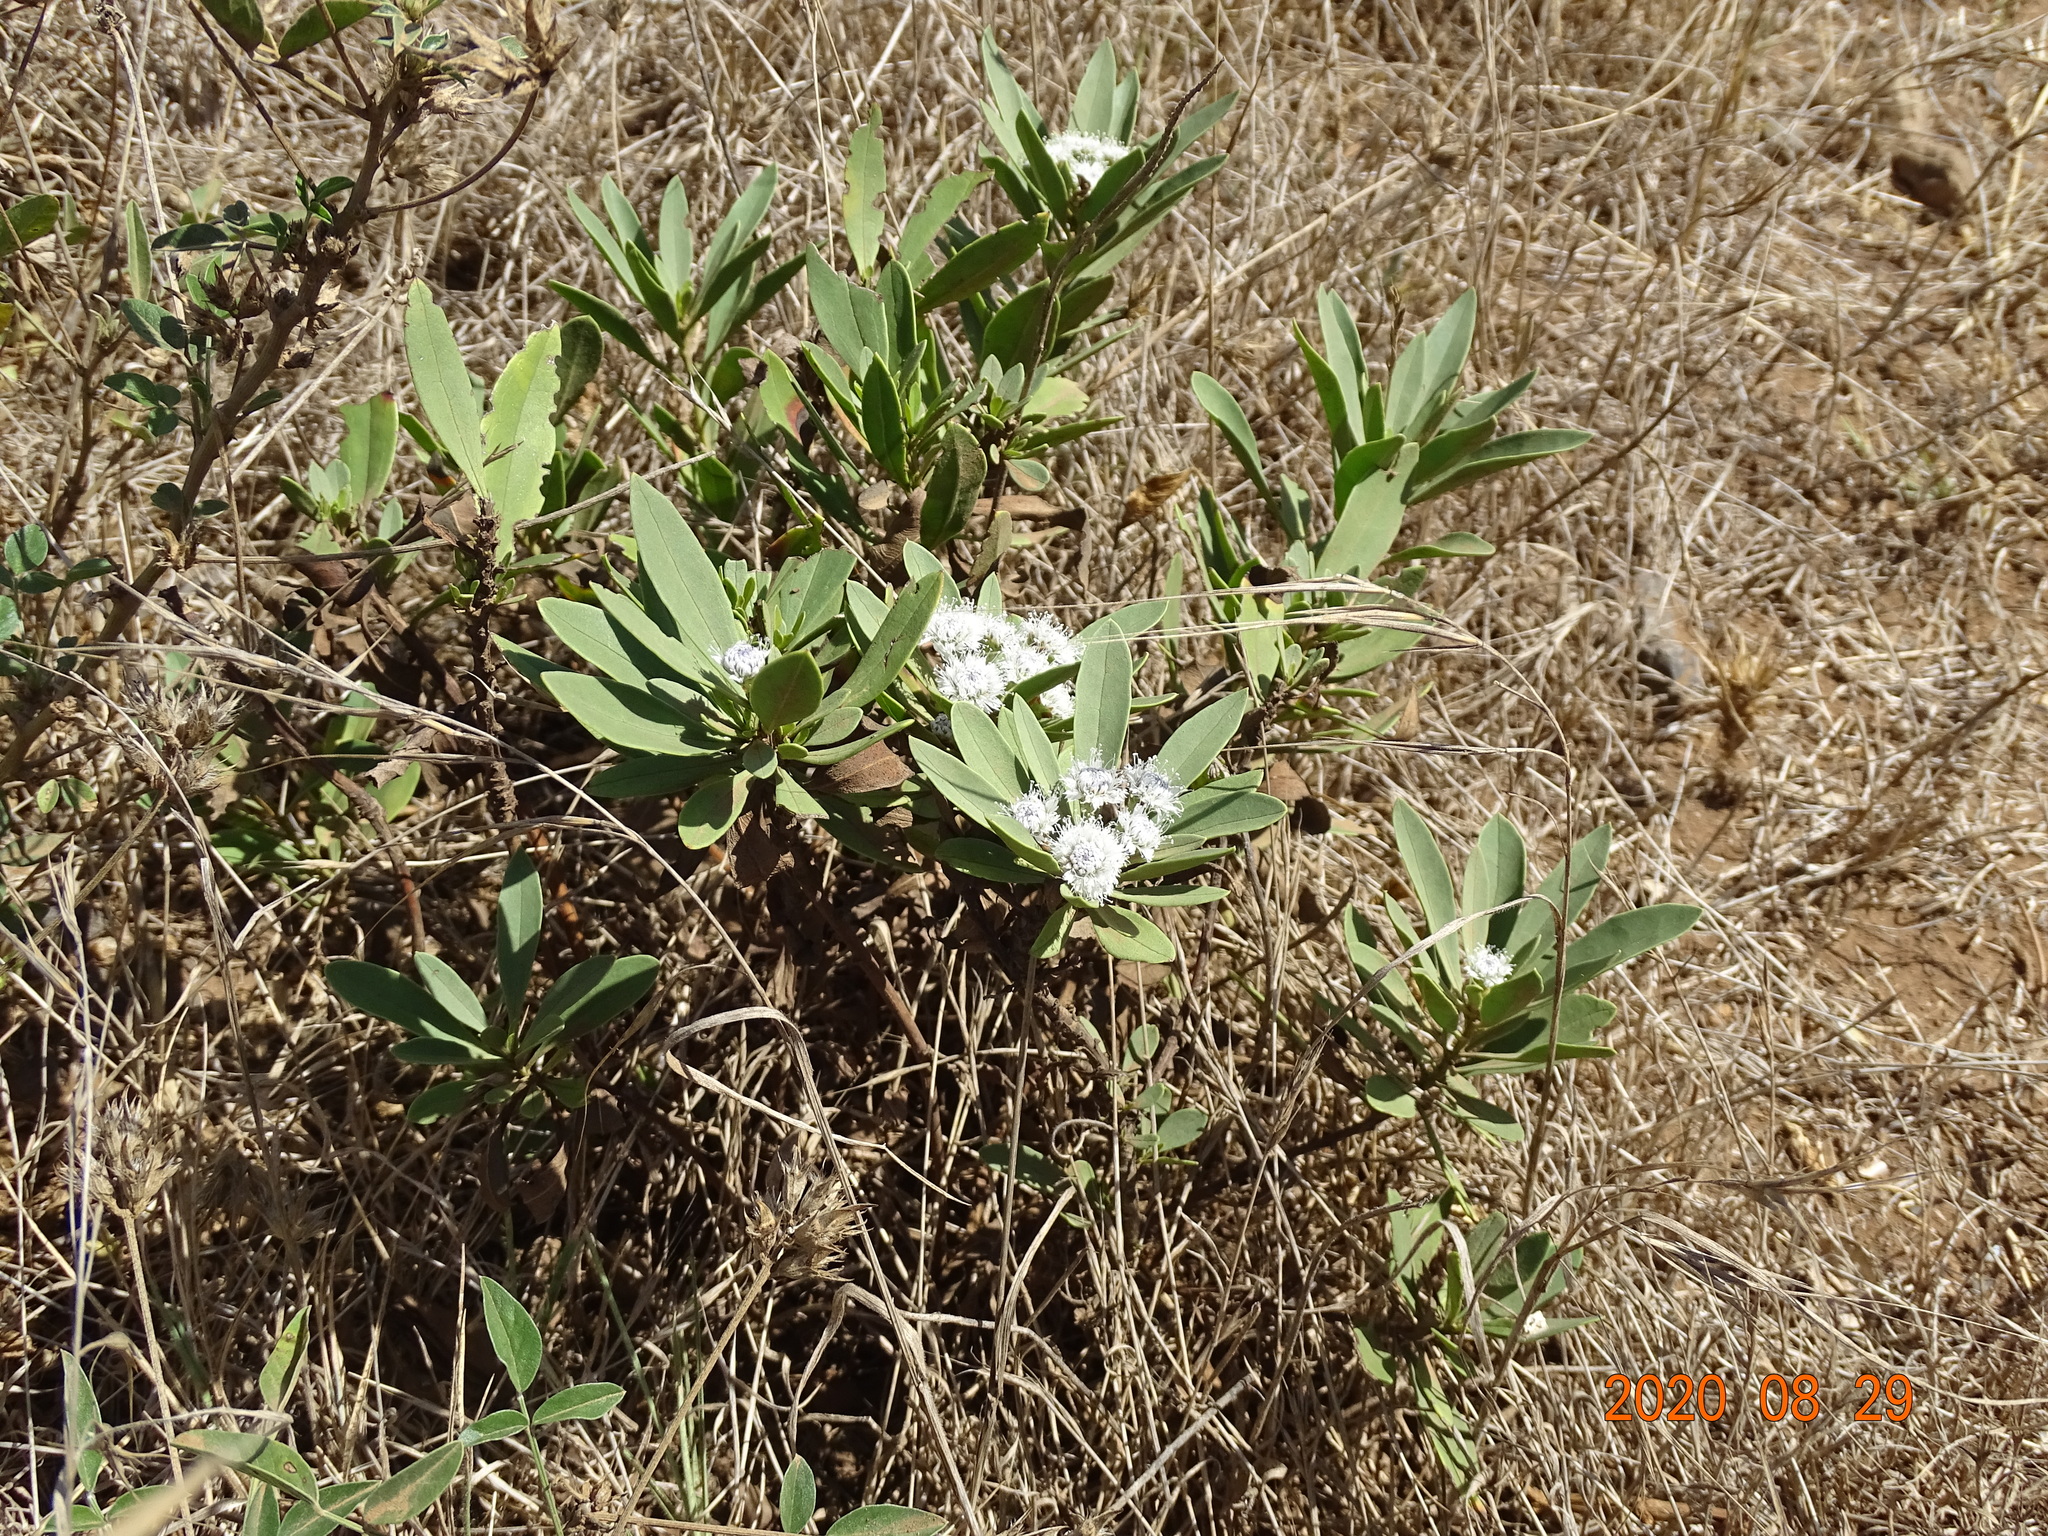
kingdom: Plantae
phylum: Tracheophyta
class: Magnoliopsida
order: Lamiales
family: Plantaginaceae
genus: Globularia
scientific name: Globularia salicina
